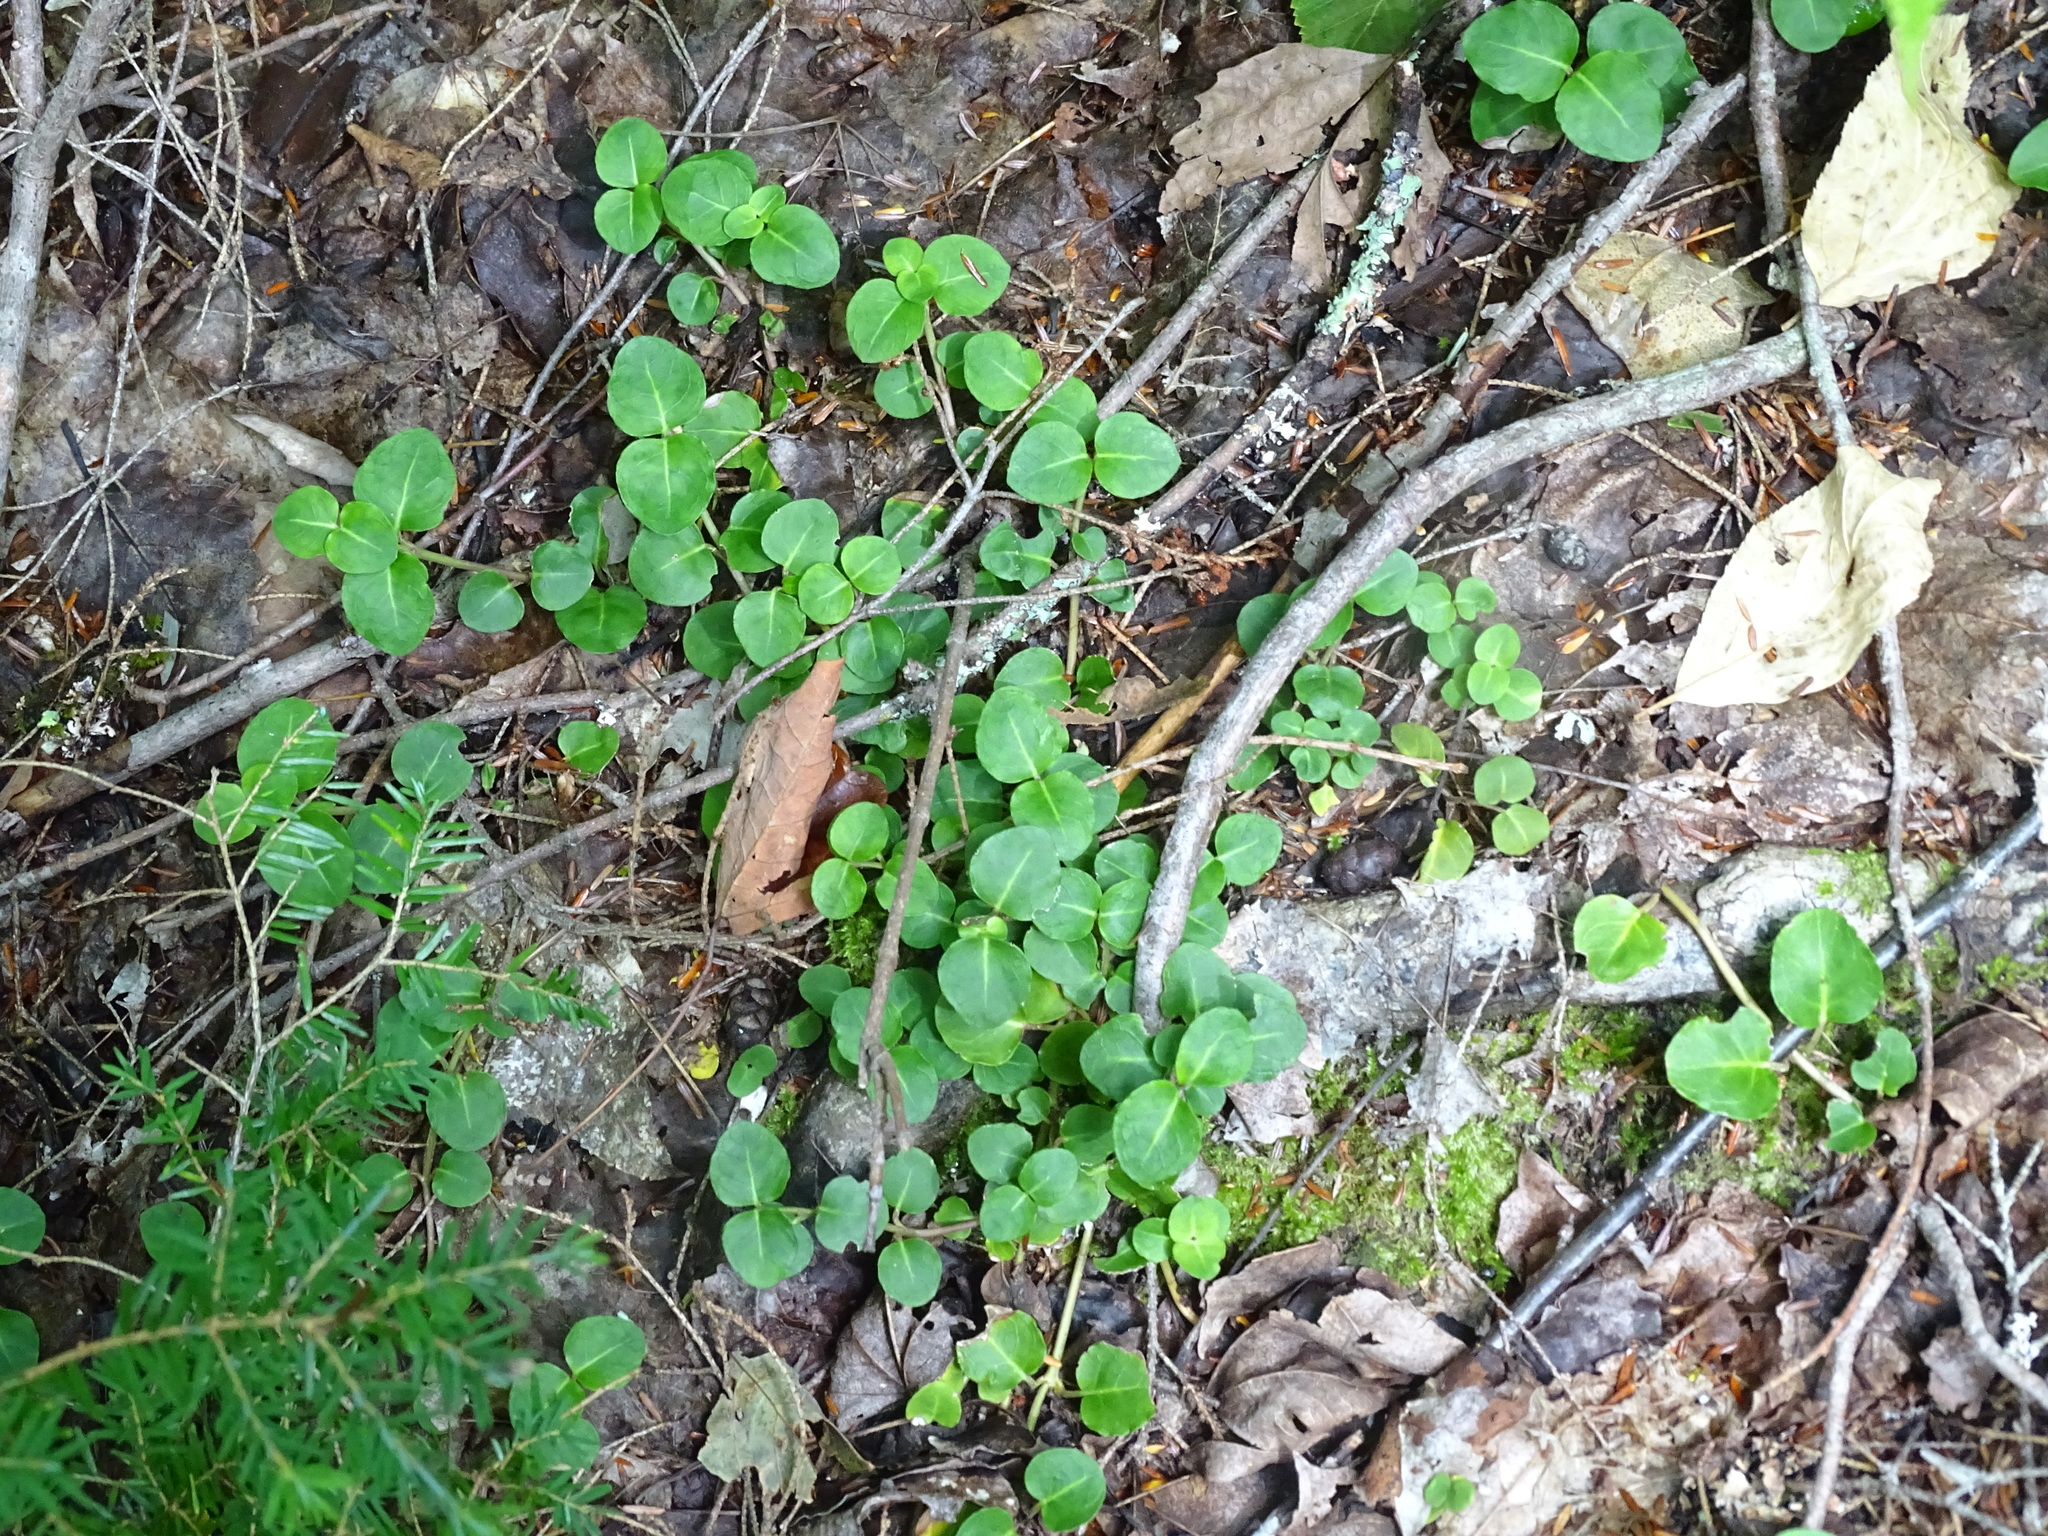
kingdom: Plantae
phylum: Tracheophyta
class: Magnoliopsida
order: Gentianales
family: Rubiaceae
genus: Mitchella
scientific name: Mitchella repens
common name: Partridge-berry
